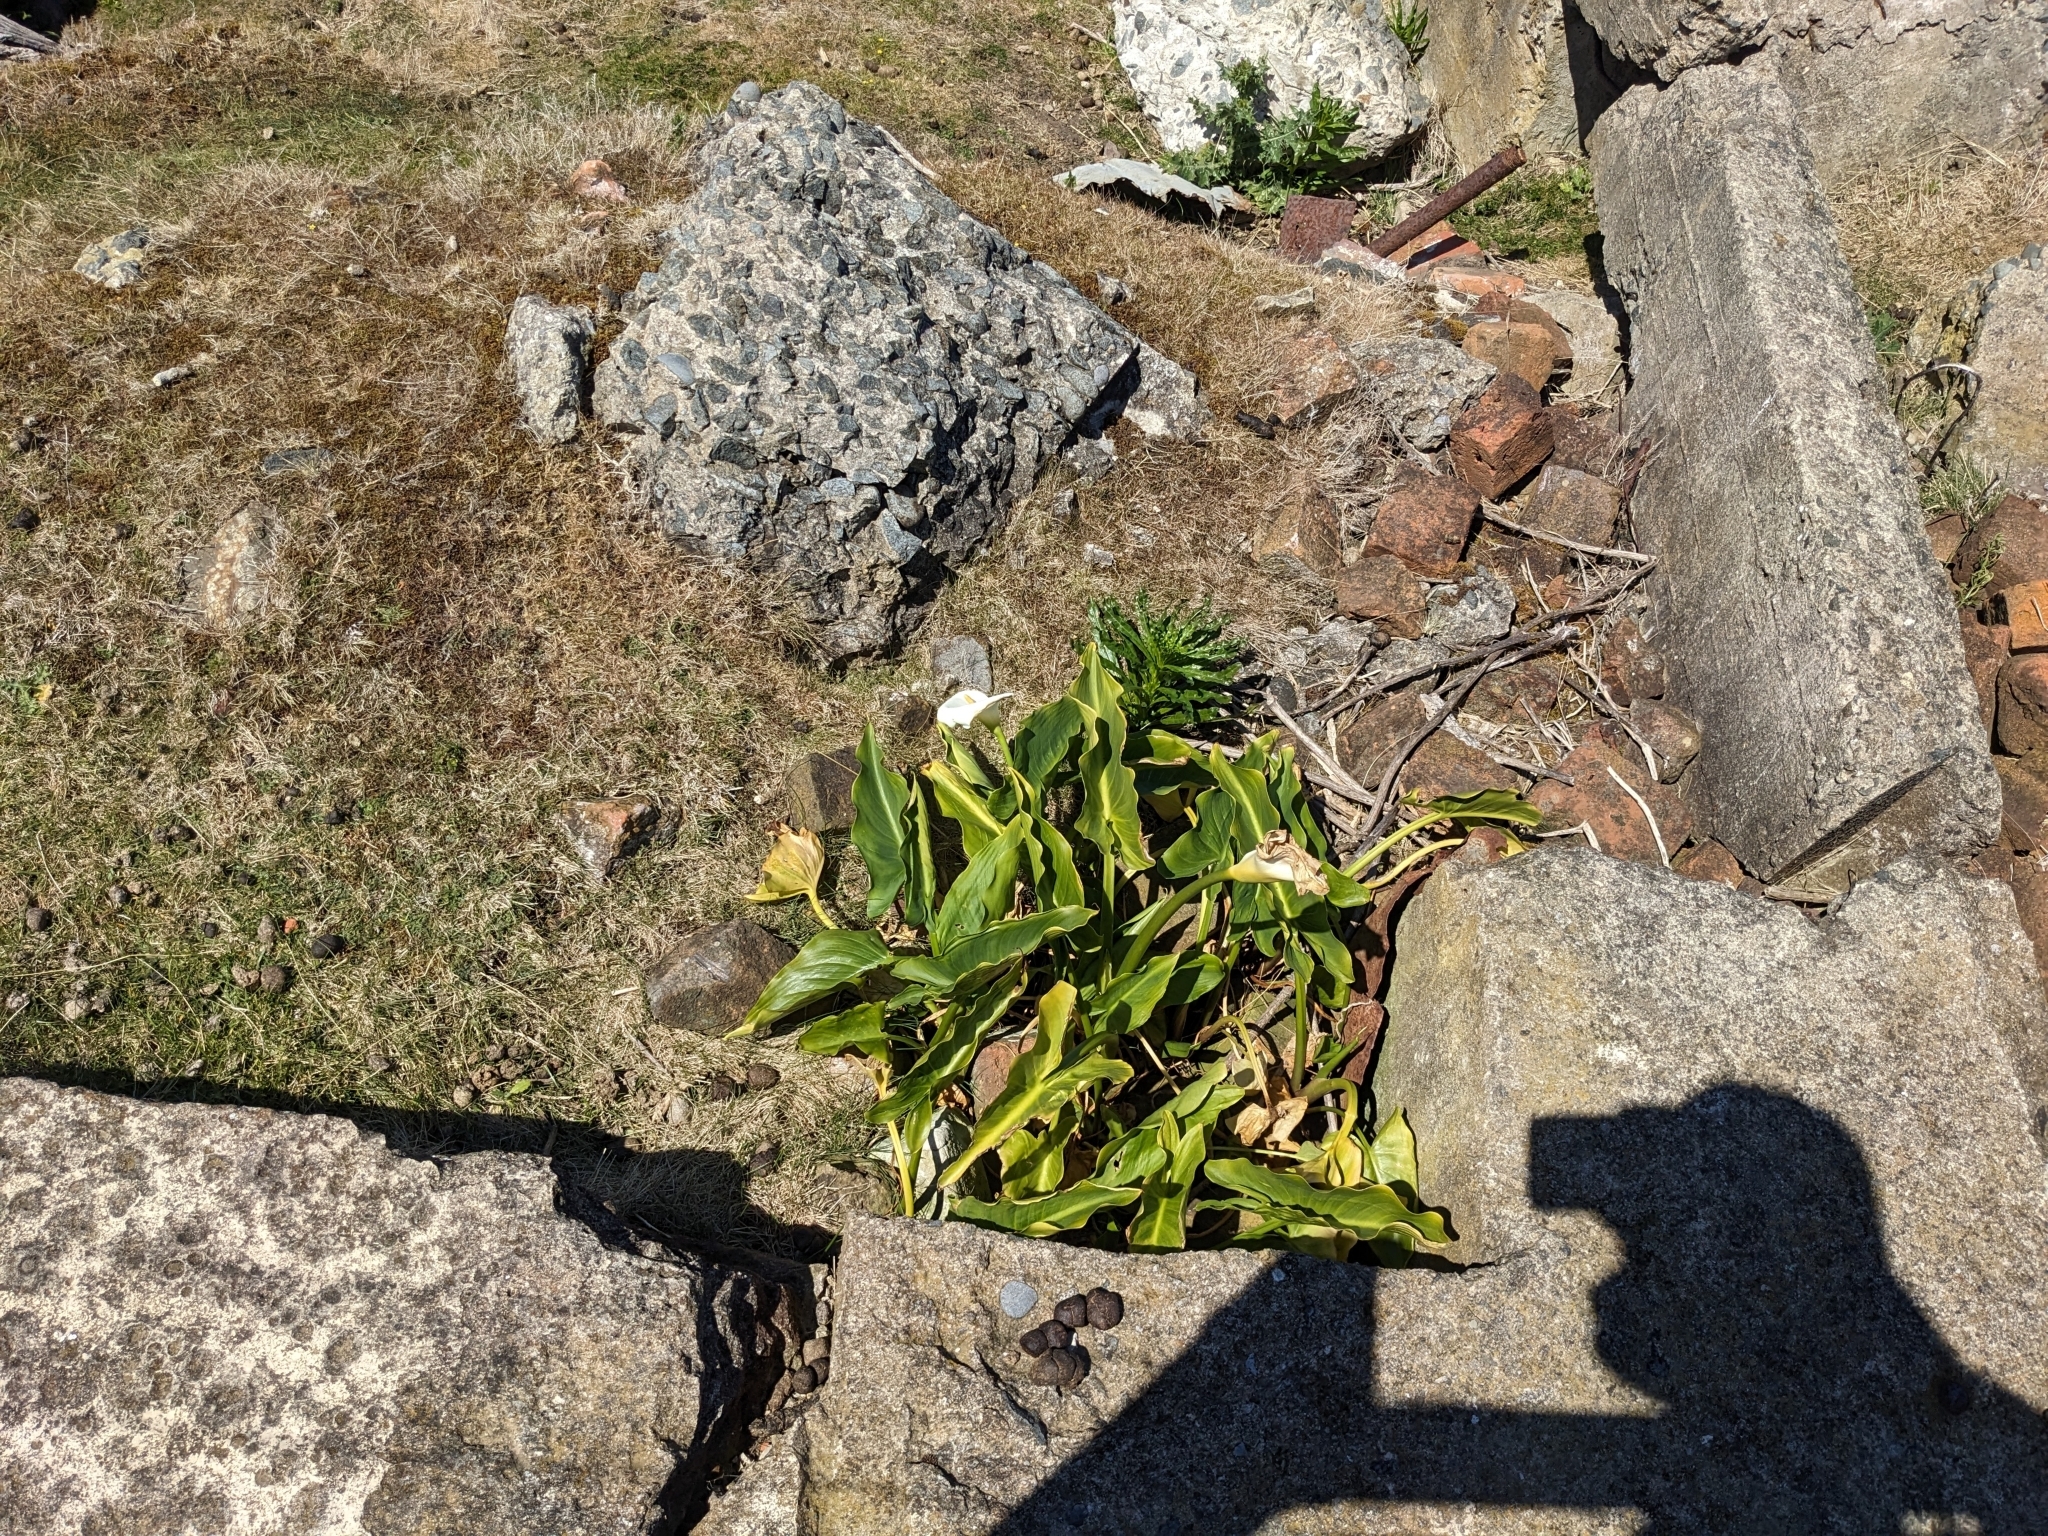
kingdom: Plantae
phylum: Tracheophyta
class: Liliopsida
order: Alismatales
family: Araceae
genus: Zantedeschia
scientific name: Zantedeschia aethiopica
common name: Altar-lily
